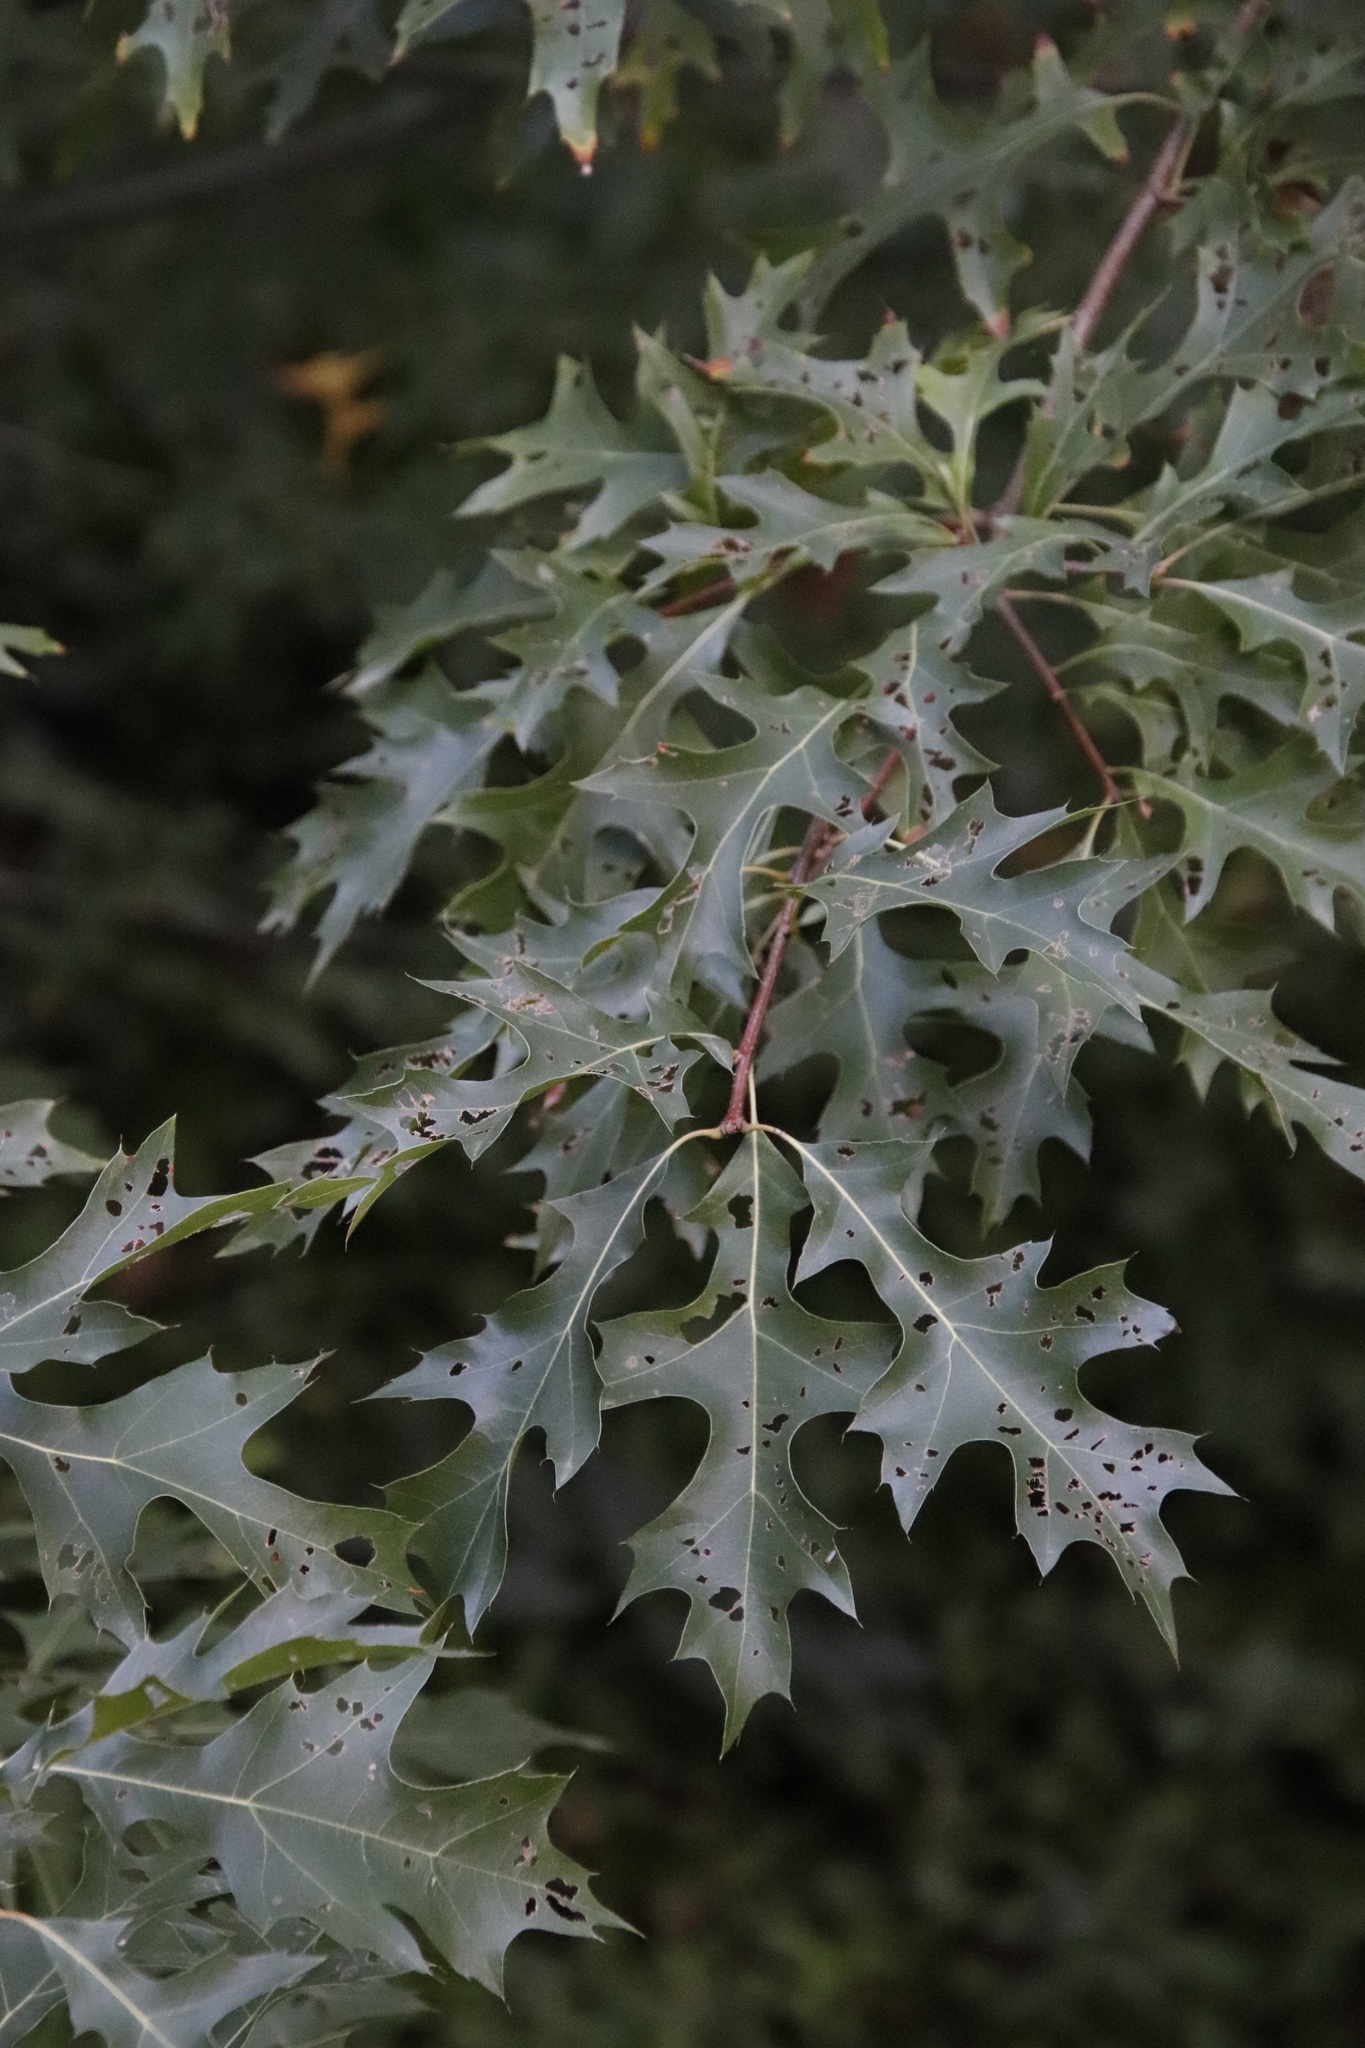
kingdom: Plantae
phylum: Tracheophyta
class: Magnoliopsida
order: Fagales
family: Fagaceae
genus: Quercus
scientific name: Quercus palustris
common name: Pin oak
